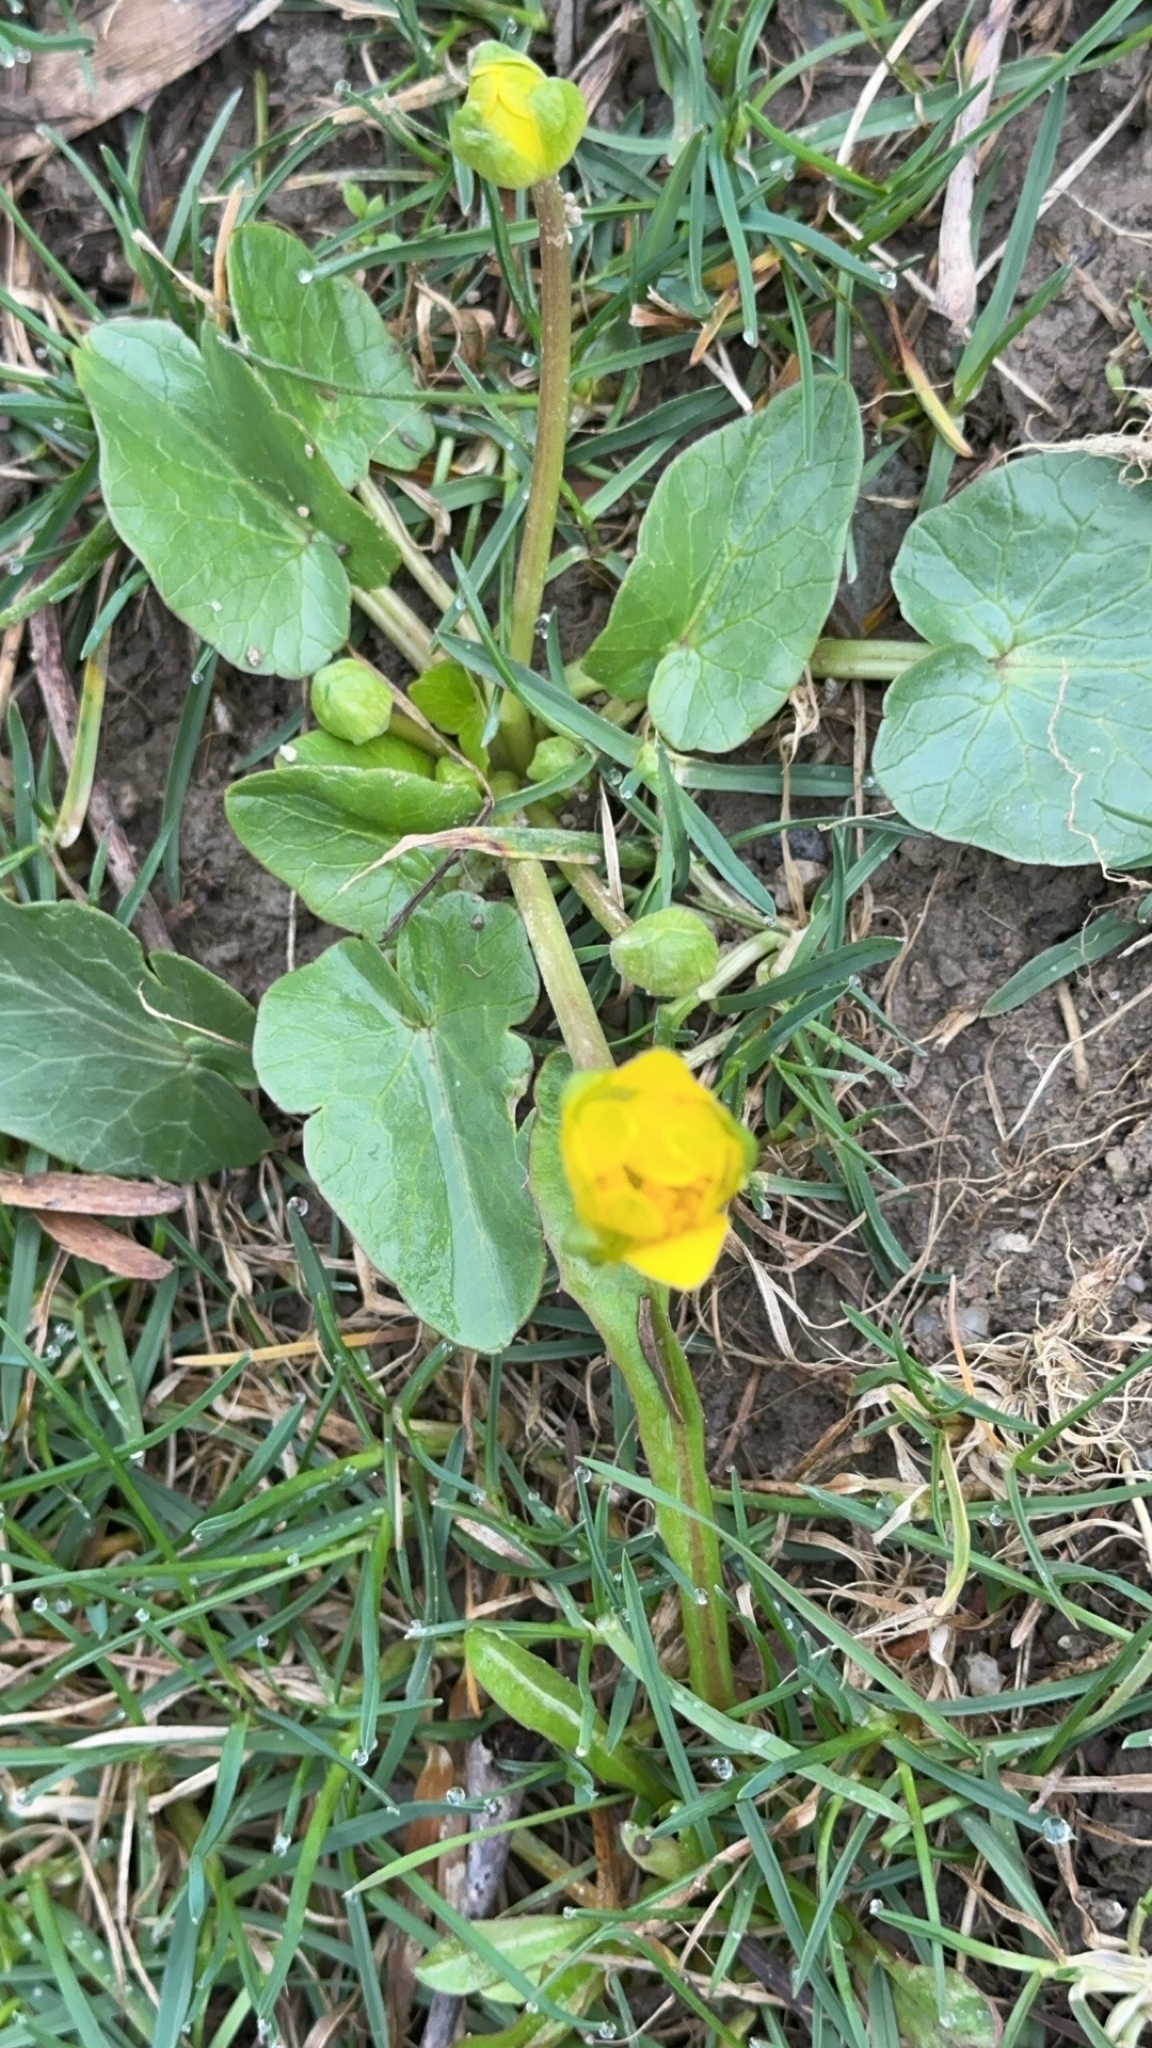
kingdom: Plantae
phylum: Tracheophyta
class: Magnoliopsida
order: Ranunculales
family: Ranunculaceae
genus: Ficaria
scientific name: Ficaria verna
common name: Lesser celandine
